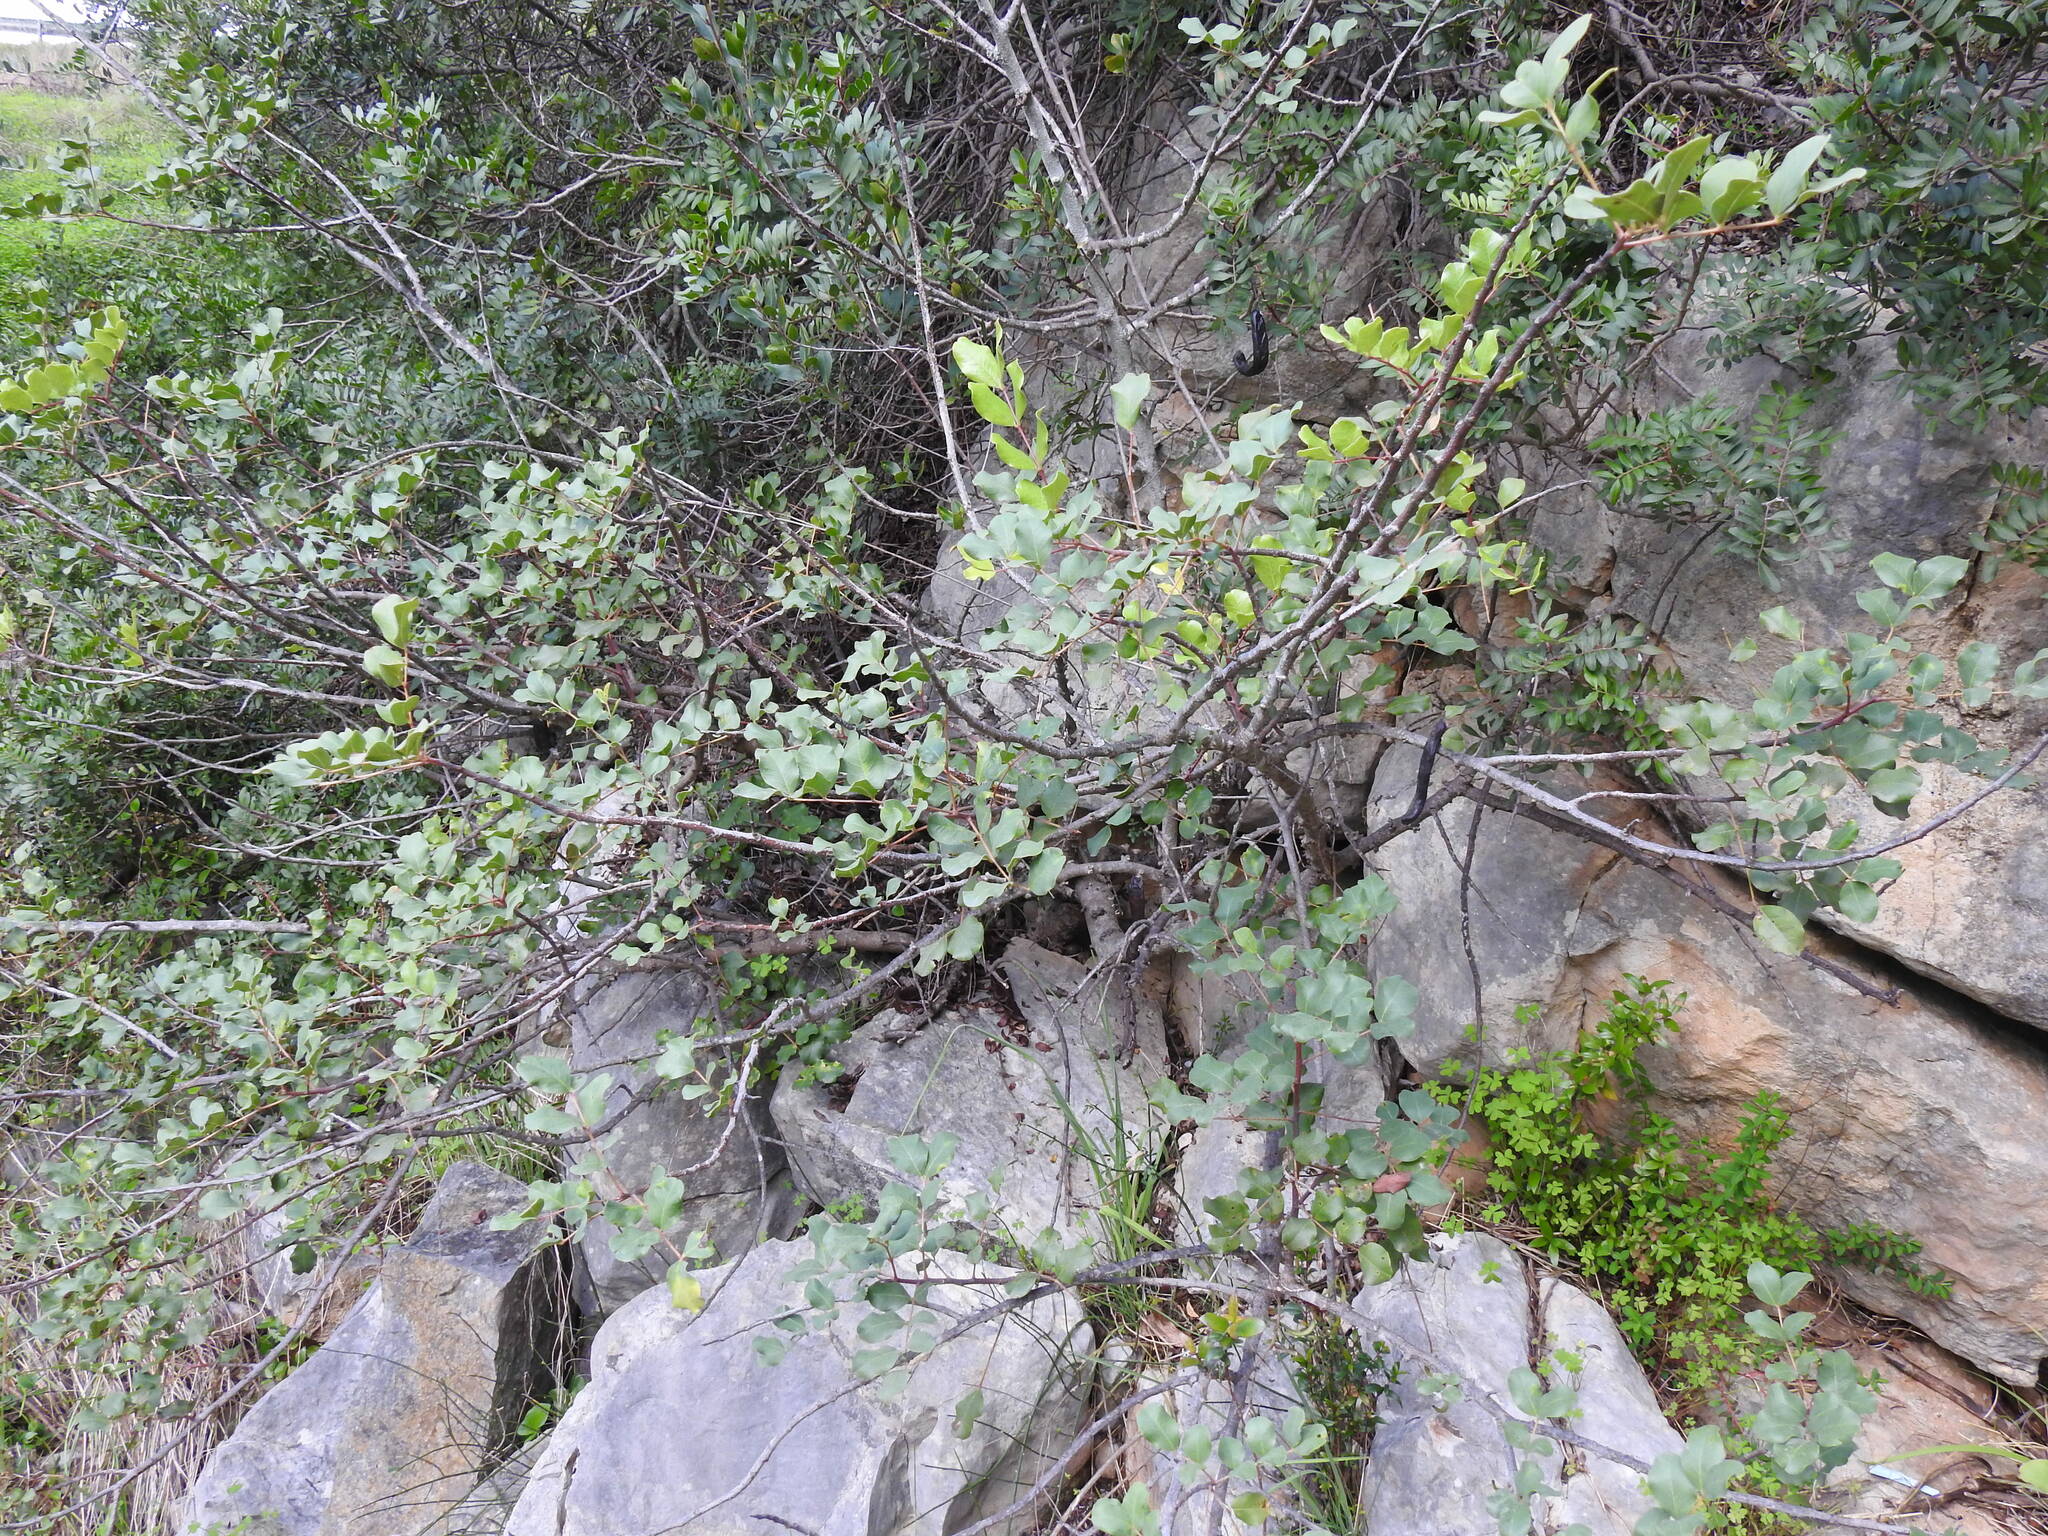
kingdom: Plantae
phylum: Tracheophyta
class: Magnoliopsida
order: Fabales
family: Fabaceae
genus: Ceratonia
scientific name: Ceratonia siliqua
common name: Carob
